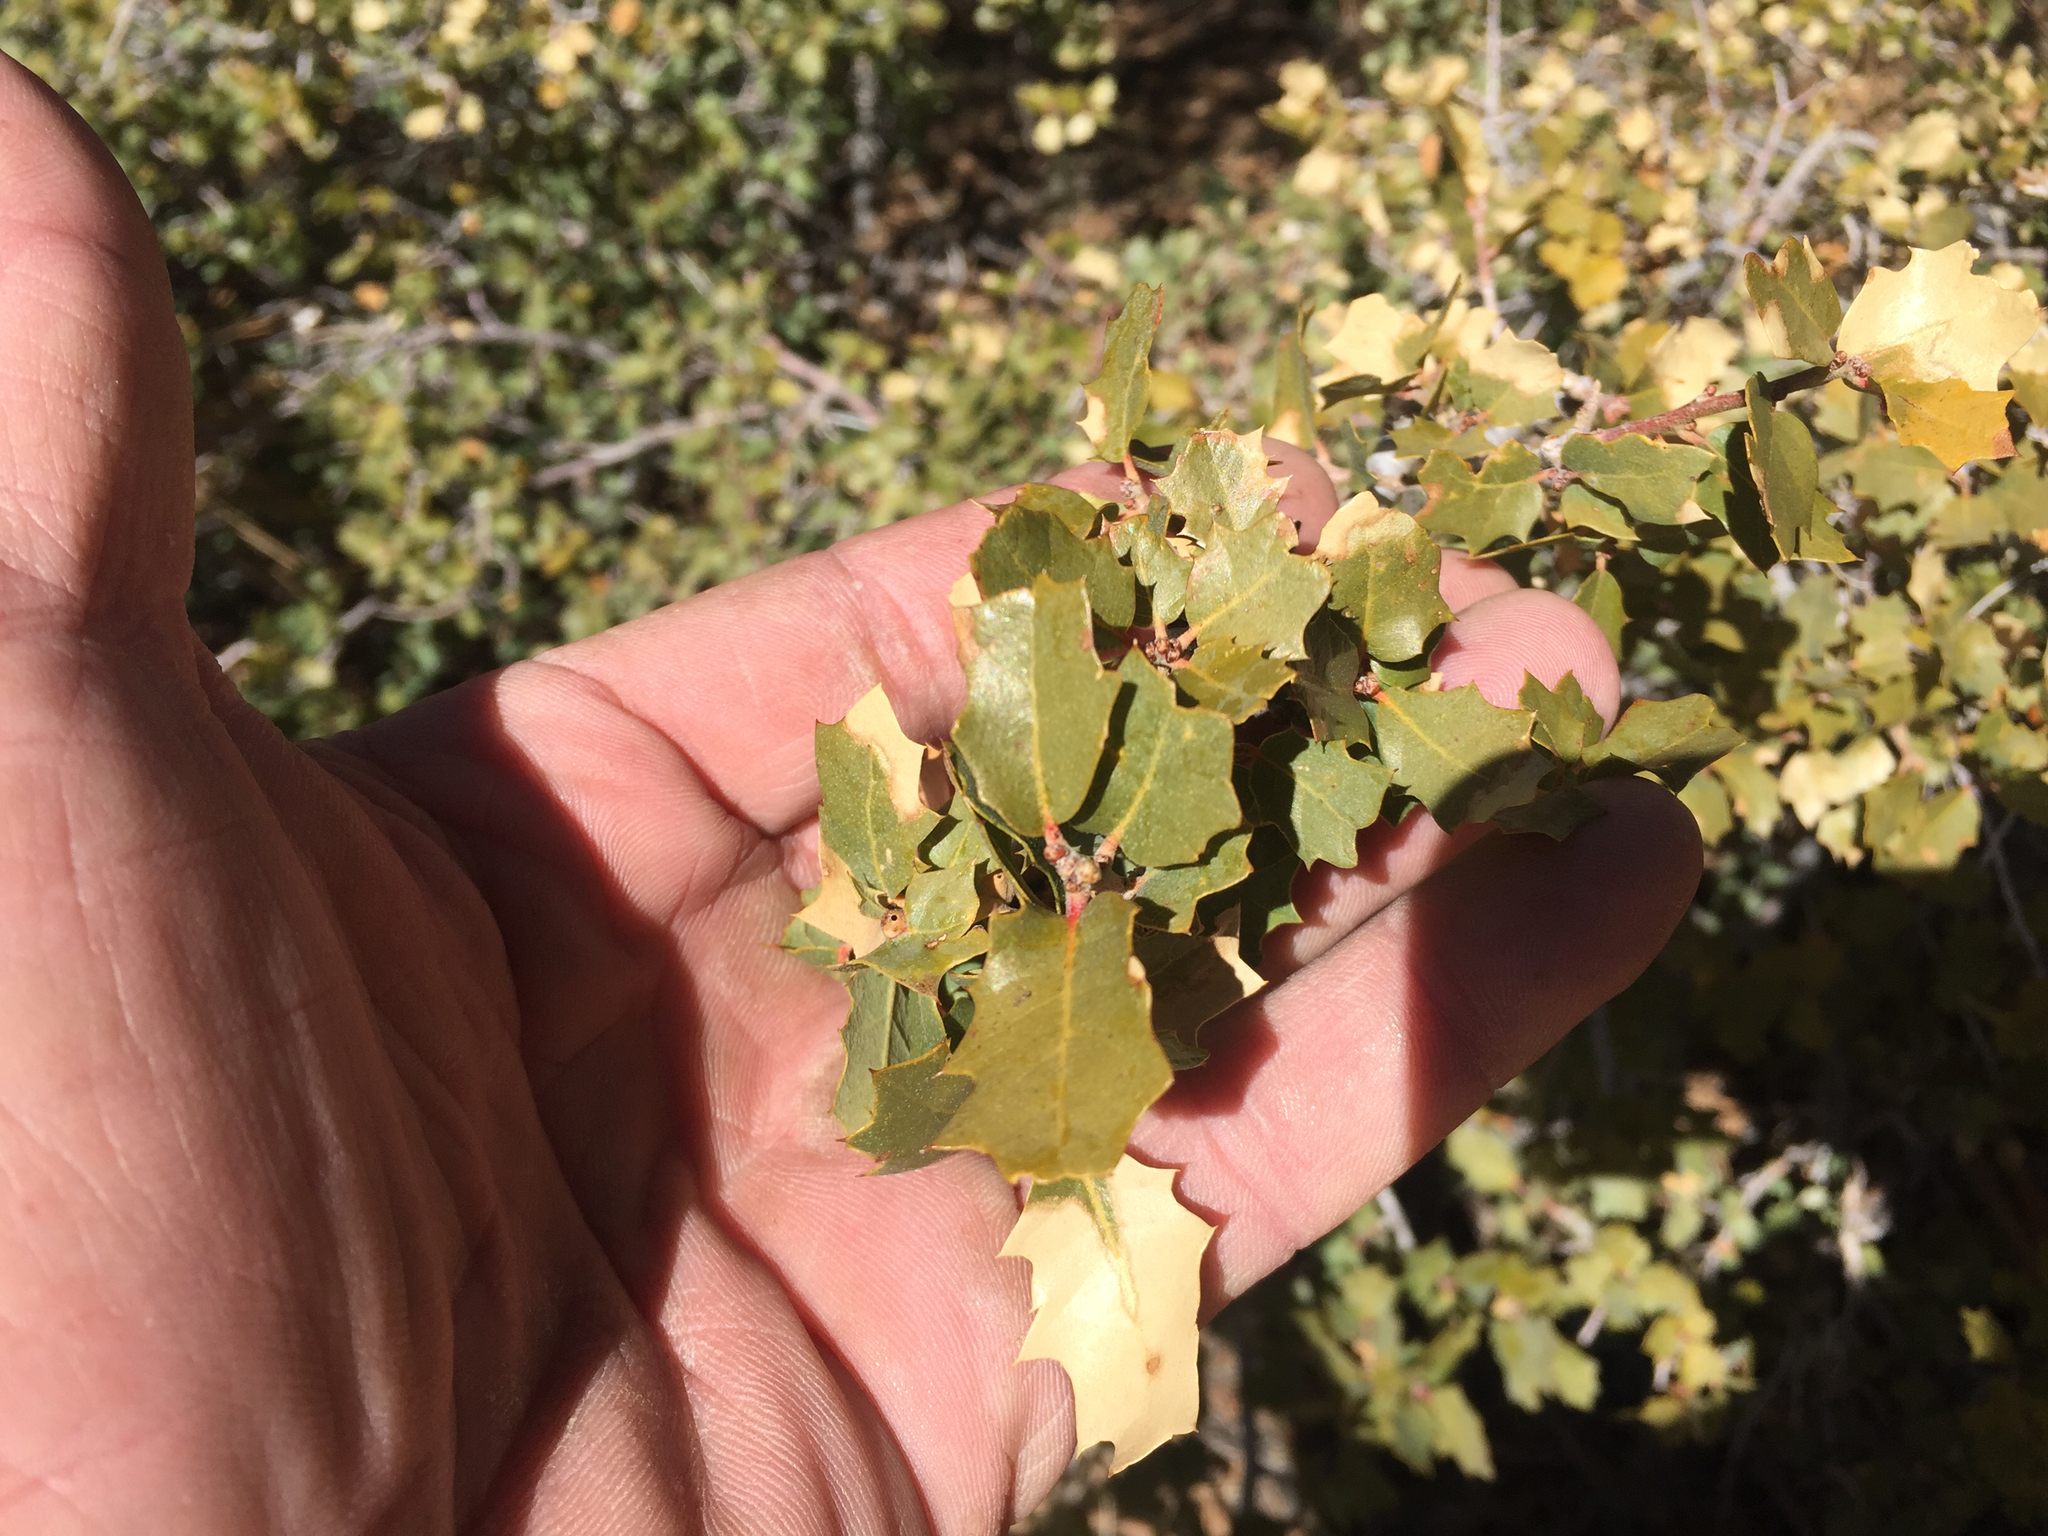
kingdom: Plantae
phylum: Tracheophyta
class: Magnoliopsida
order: Fagales
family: Fagaceae
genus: Quercus
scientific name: Quercus turbinella
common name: Sonoran scrub oak
